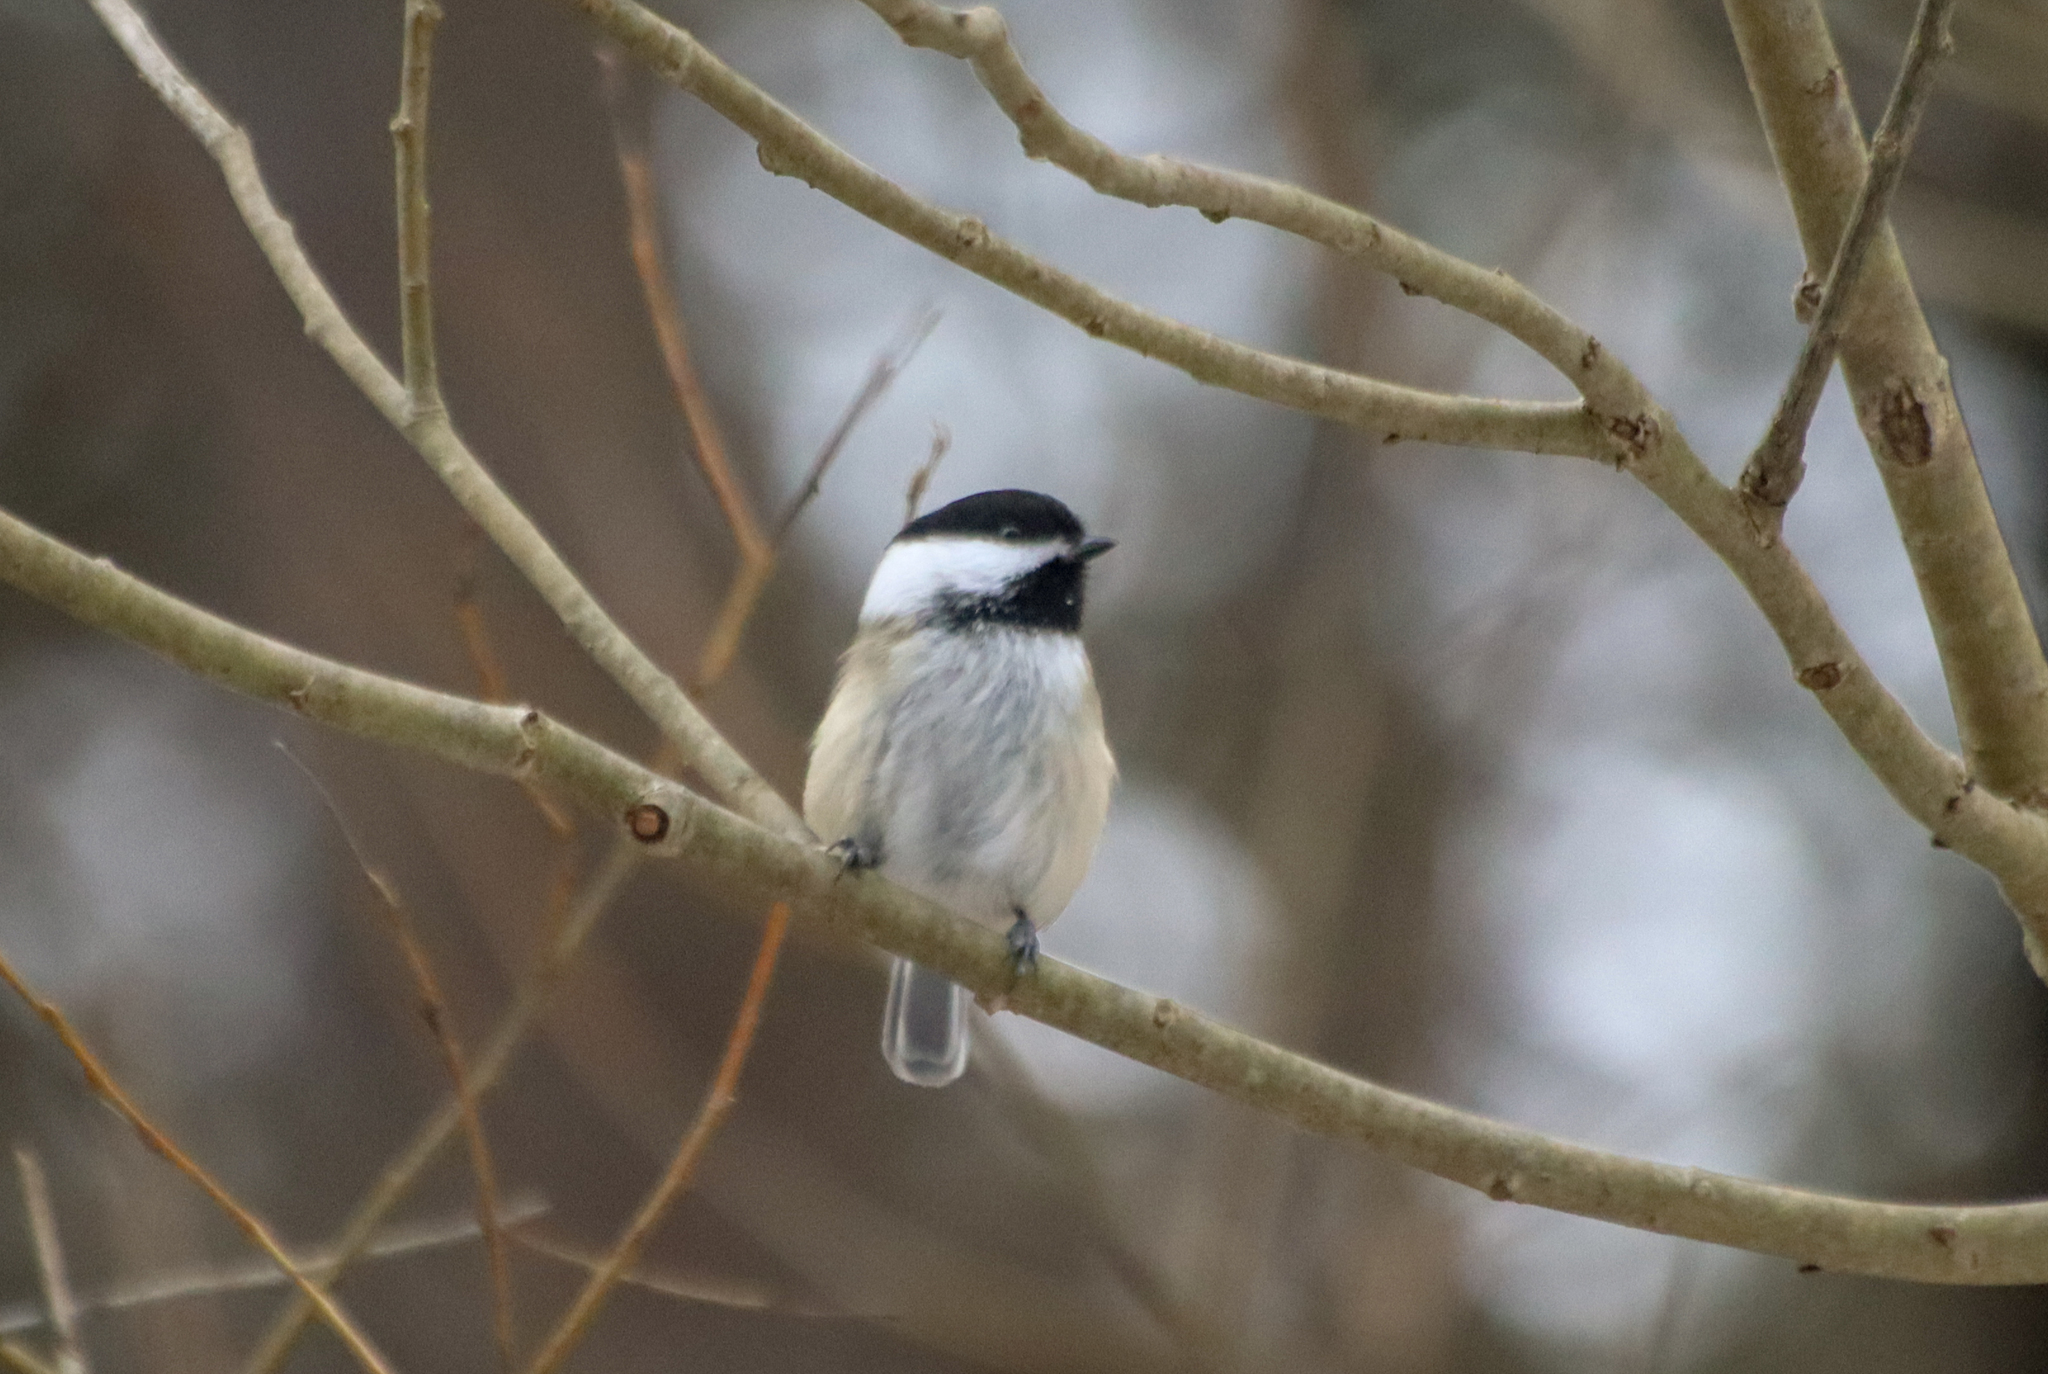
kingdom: Animalia
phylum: Chordata
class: Aves
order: Passeriformes
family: Paridae
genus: Poecile
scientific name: Poecile atricapillus
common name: Black-capped chickadee
